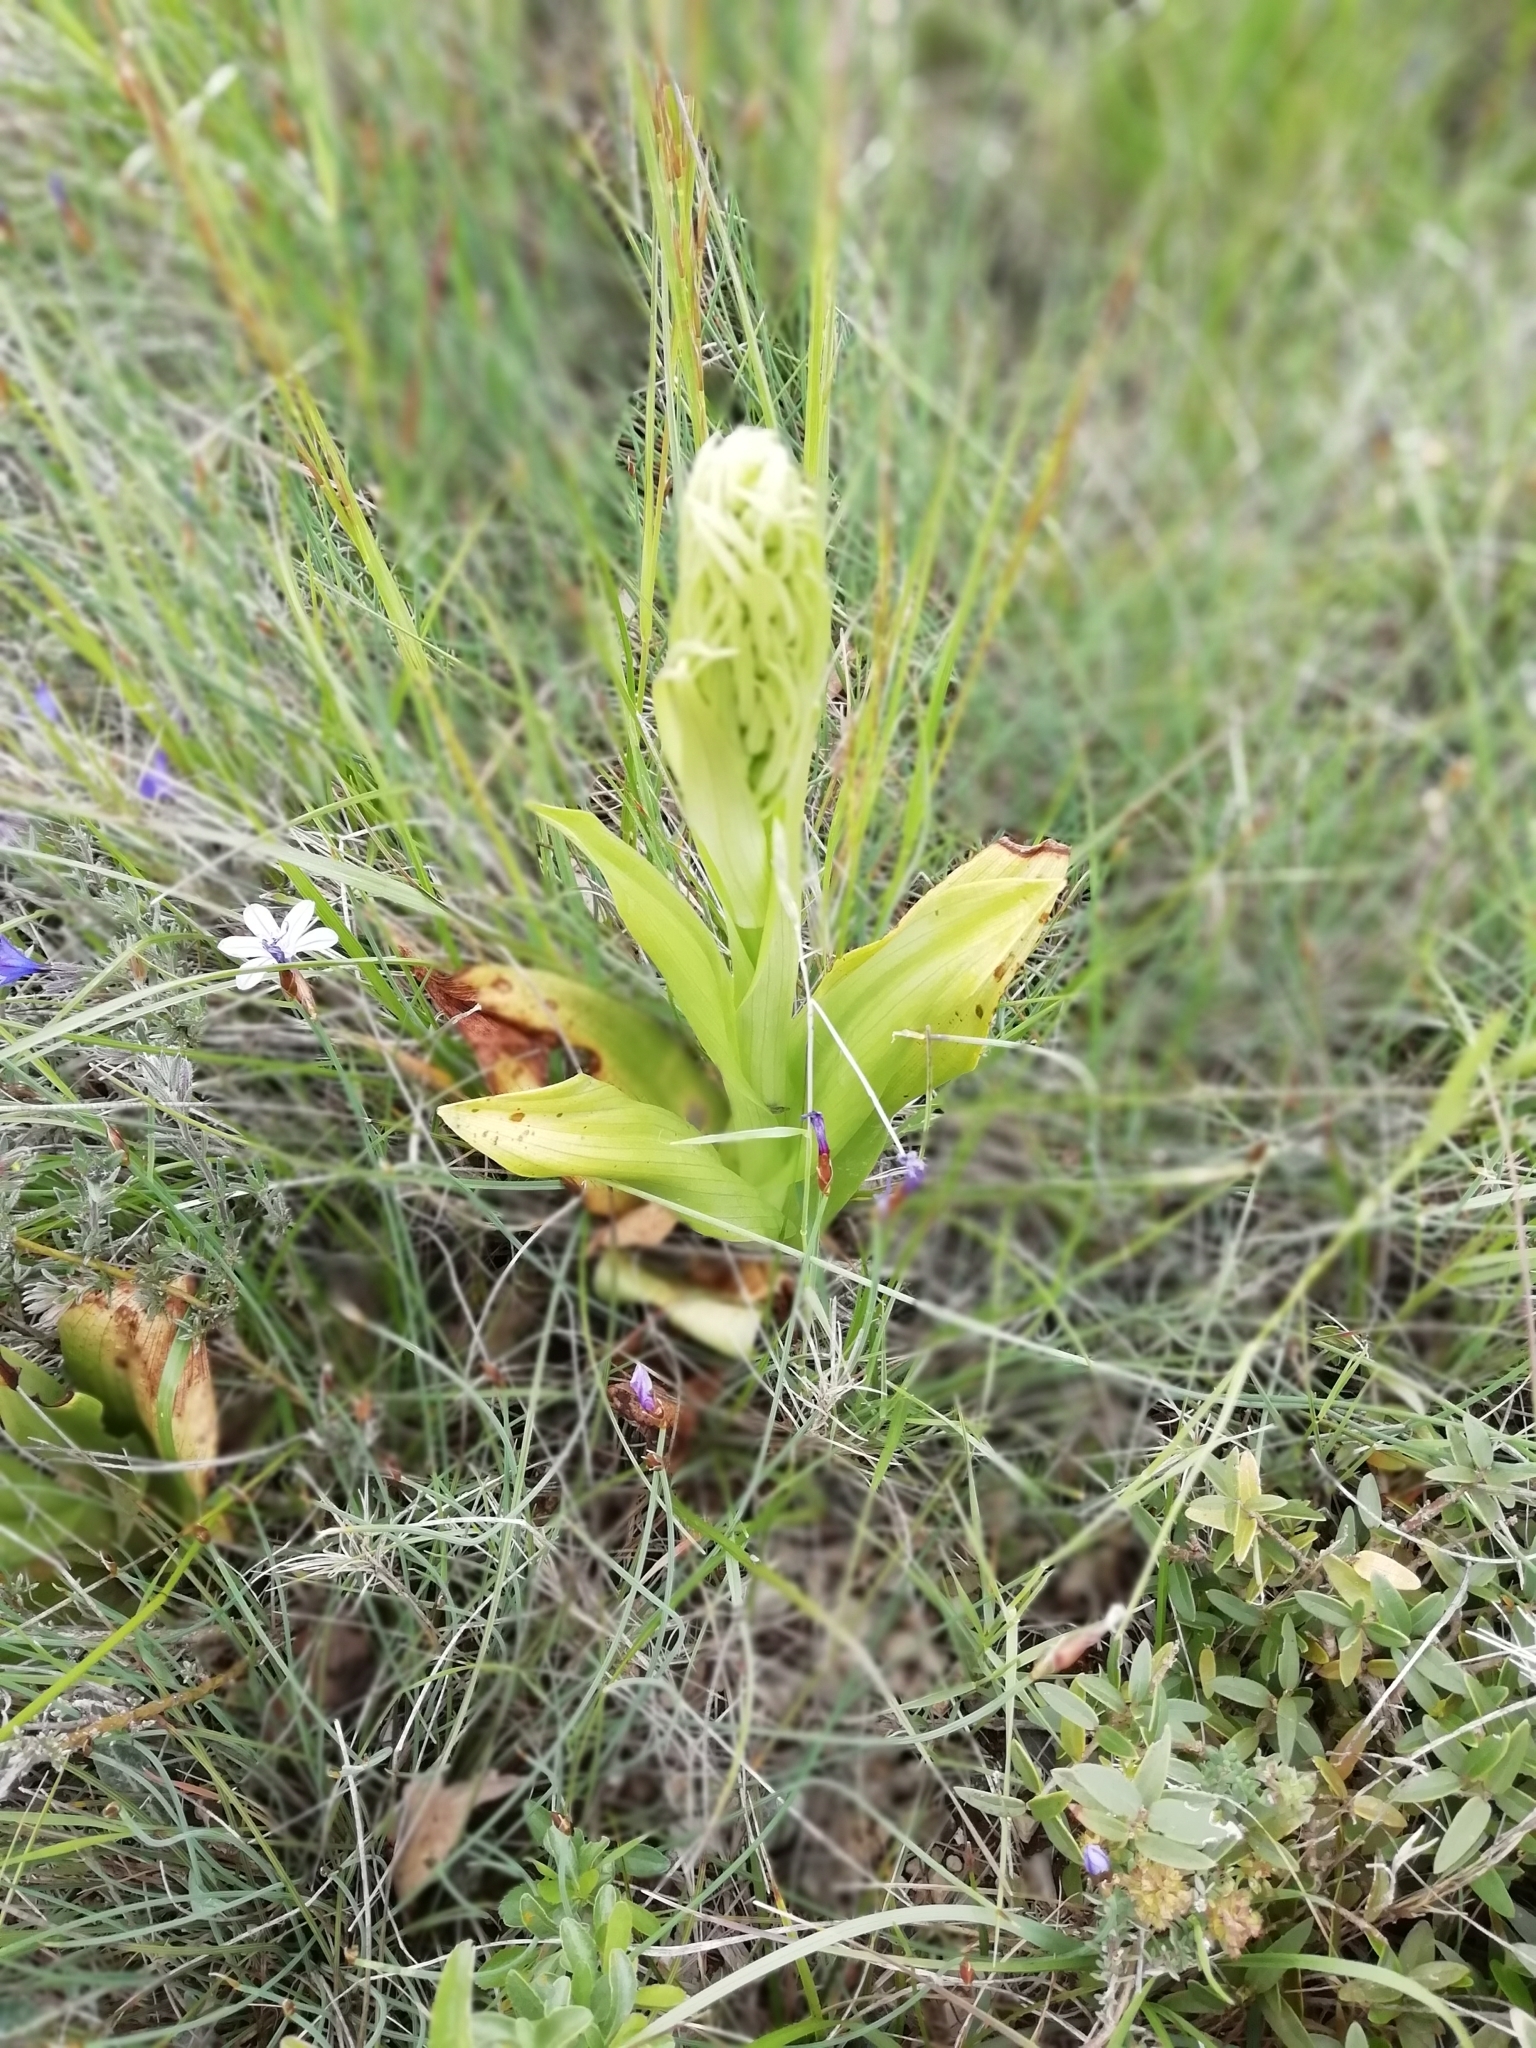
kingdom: Plantae
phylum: Tracheophyta
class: Liliopsida
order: Asparagales
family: Orchidaceae
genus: Himantoglossum
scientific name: Himantoglossum hircinum
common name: Lizard orchid
